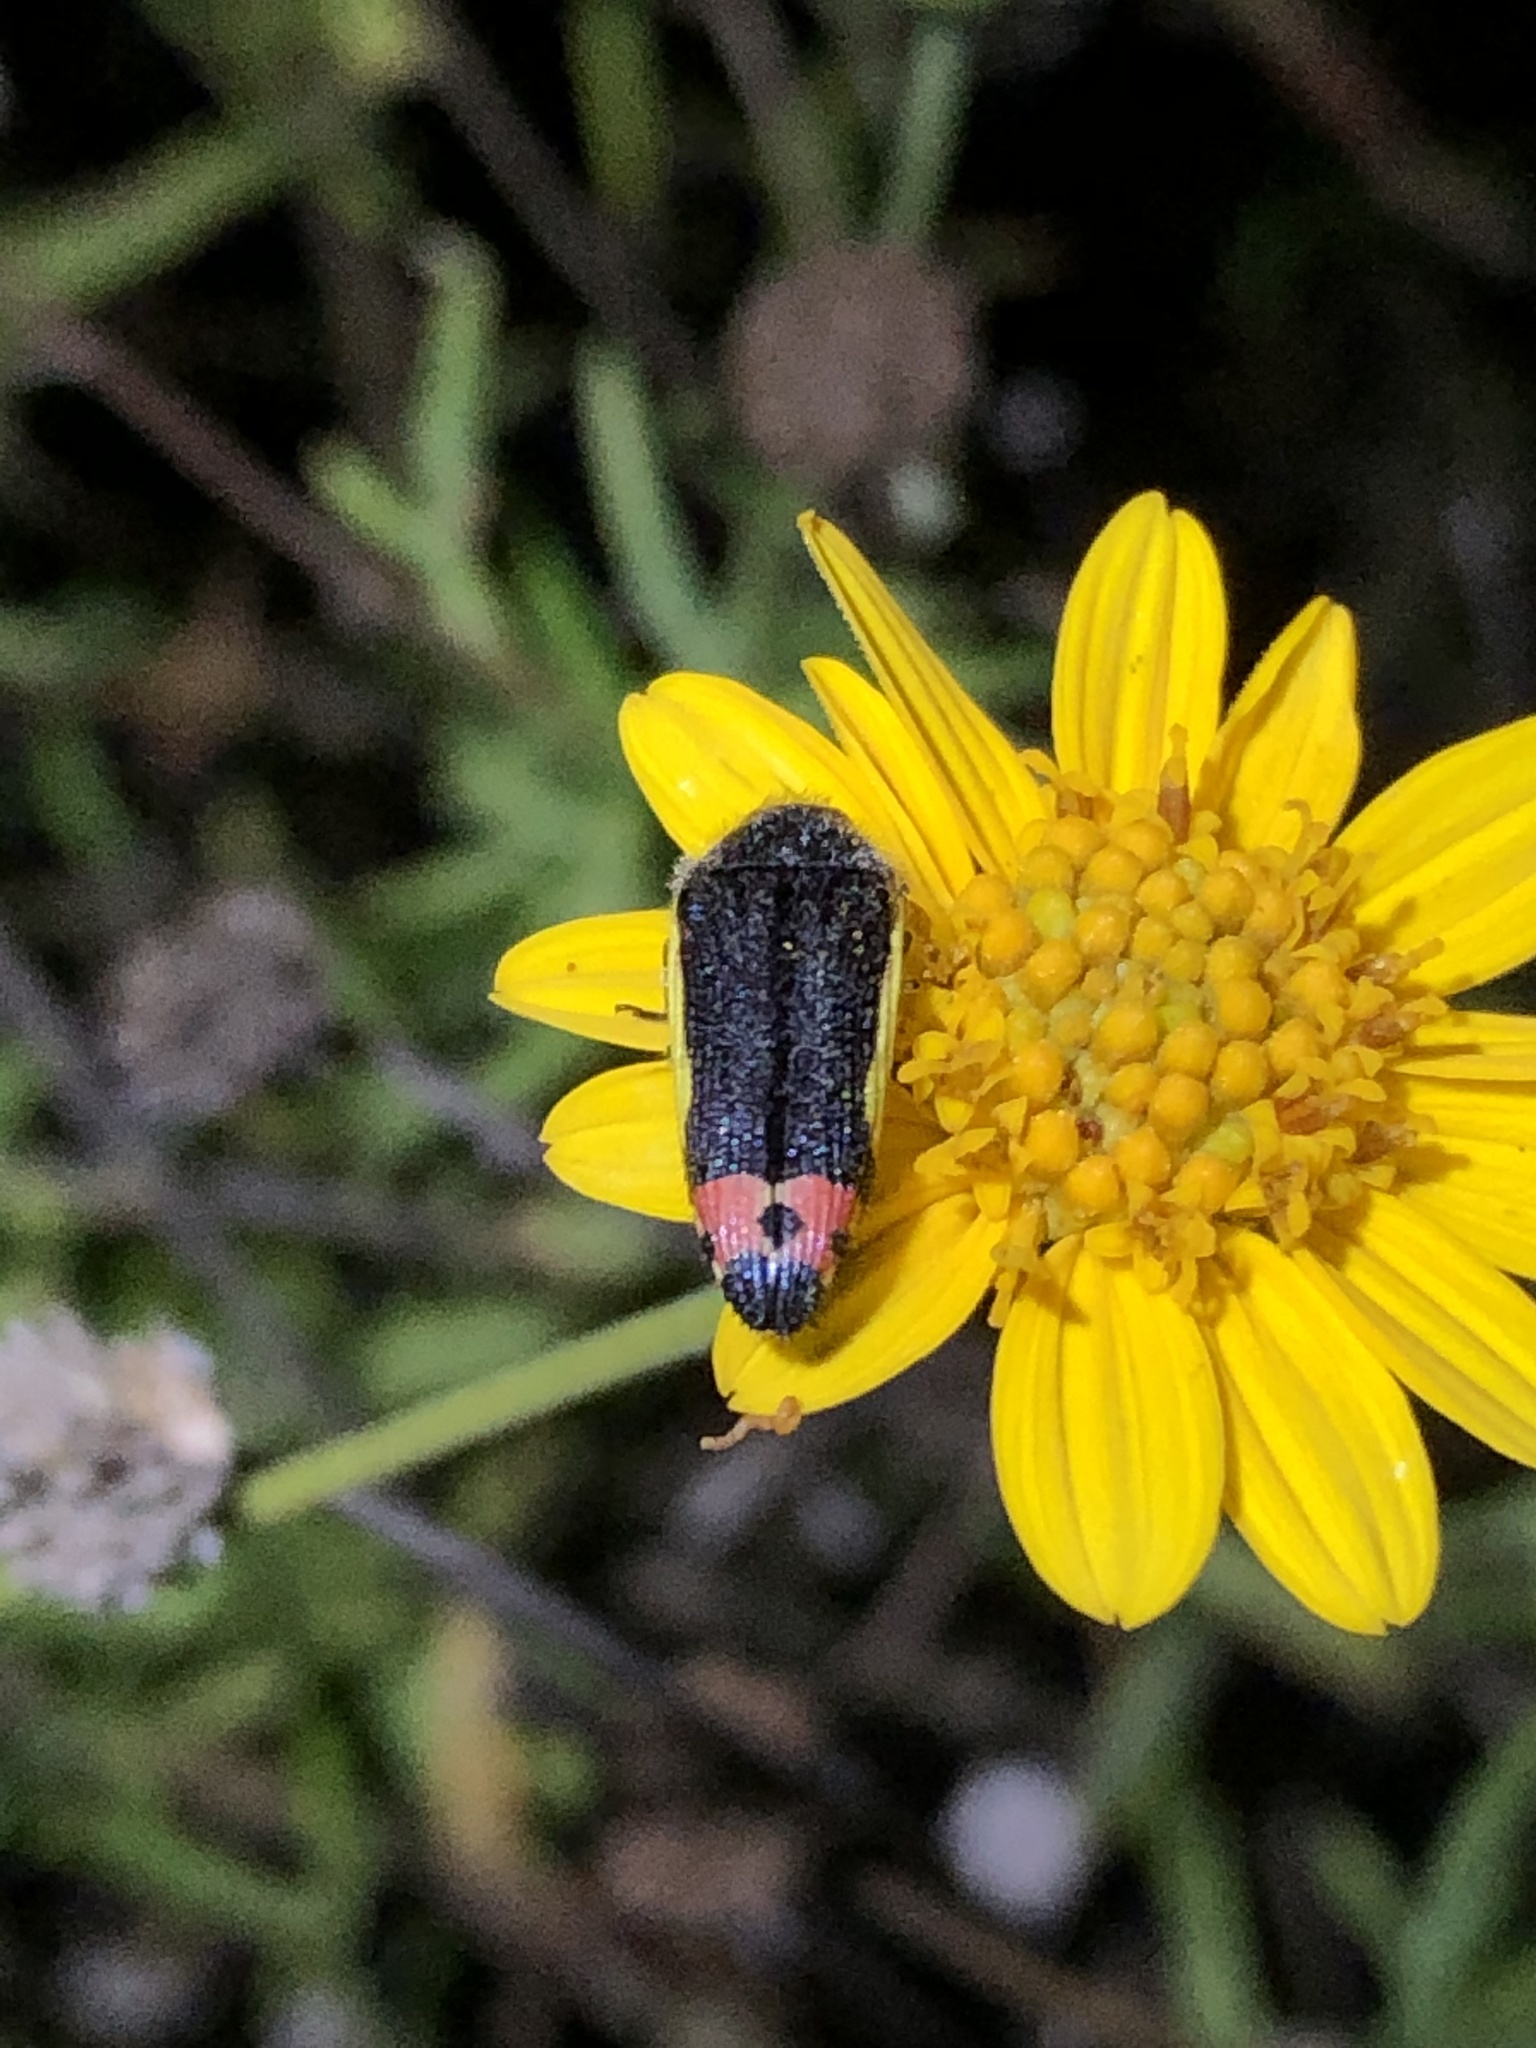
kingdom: Animalia
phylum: Arthropoda
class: Insecta
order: Coleoptera
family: Buprestidae
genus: Acmaeodera
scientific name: Acmaeodera flavomarginata
